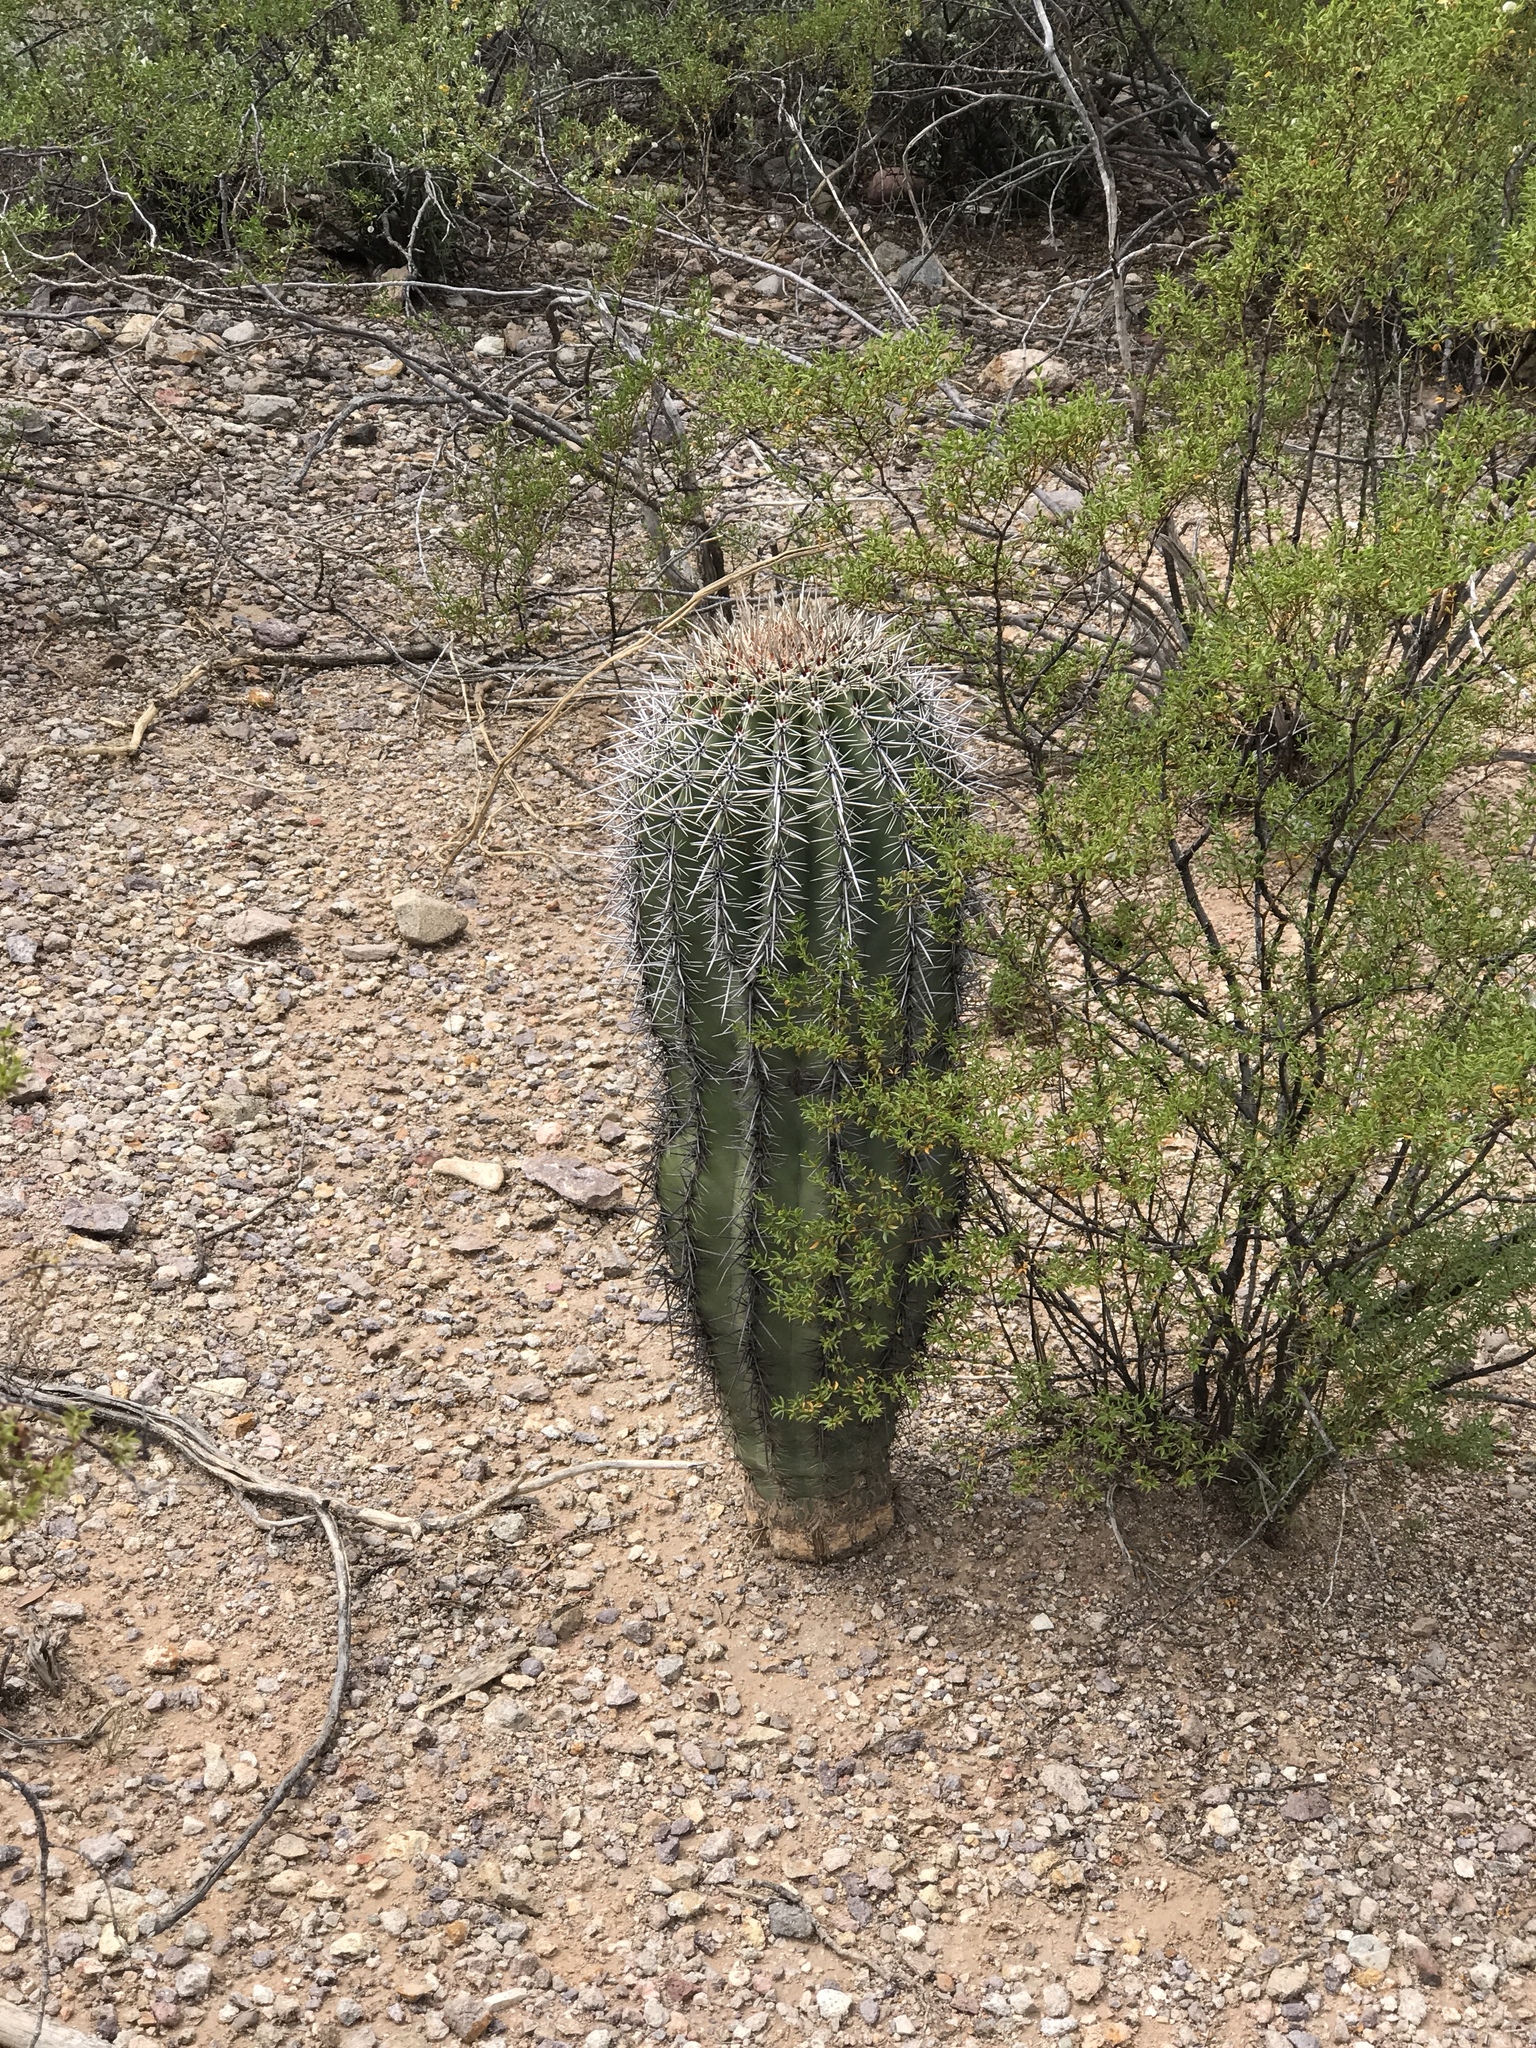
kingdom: Plantae
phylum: Tracheophyta
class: Magnoliopsida
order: Caryophyllales
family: Cactaceae
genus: Carnegiea
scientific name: Carnegiea gigantea
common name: Saguaro
